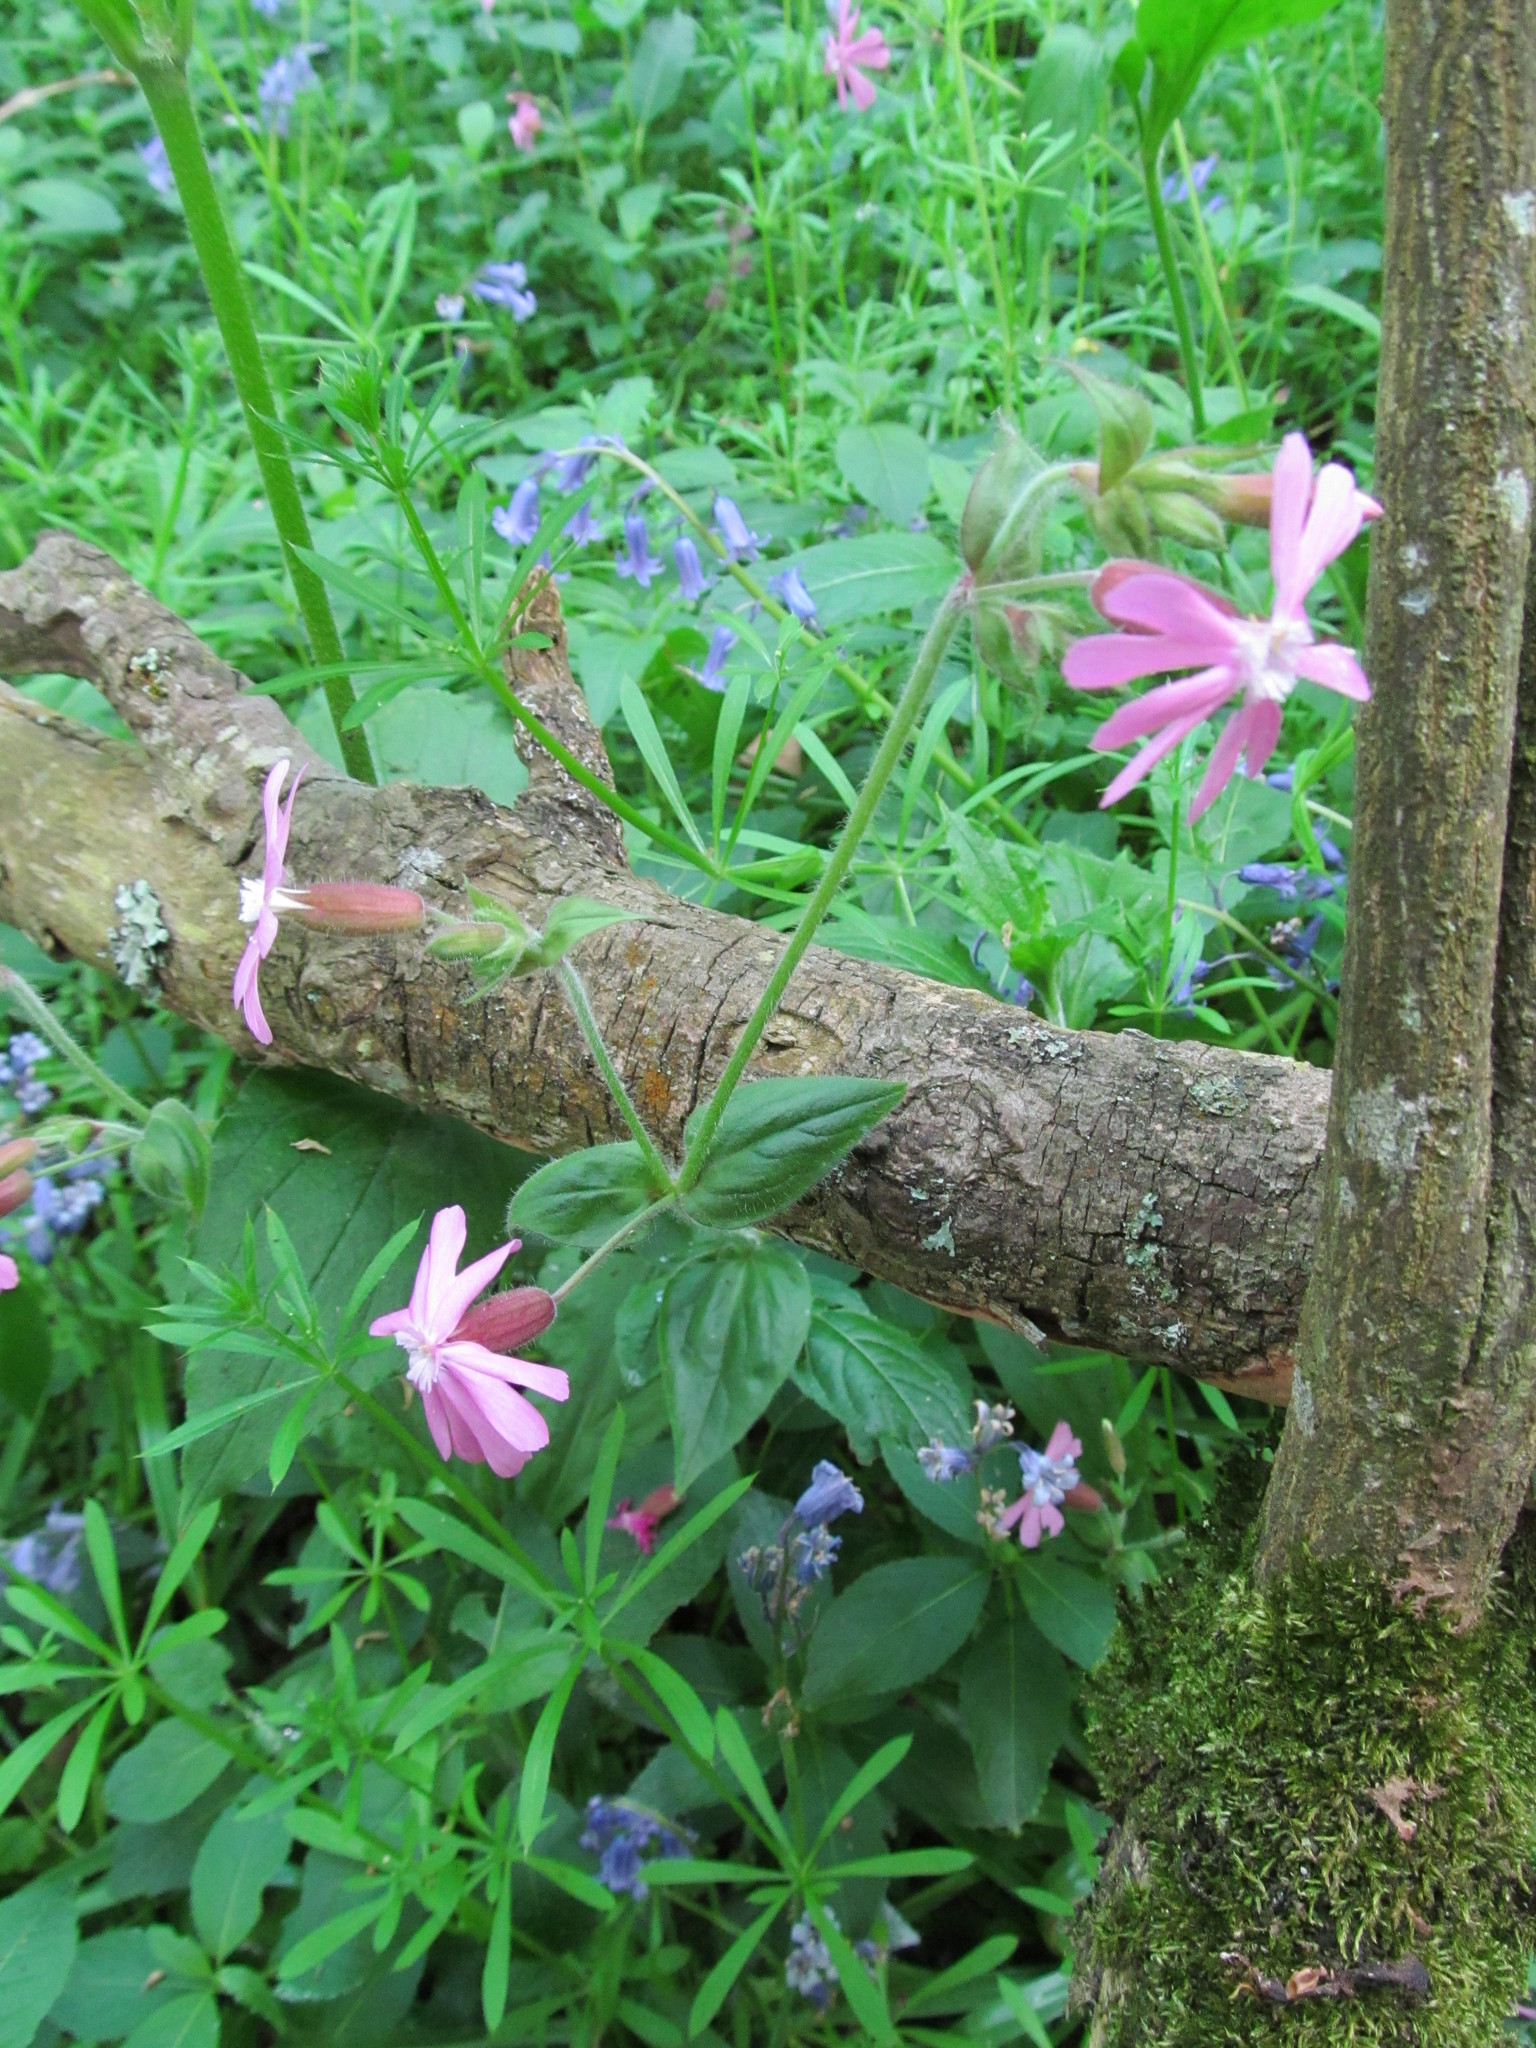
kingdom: Plantae
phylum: Tracheophyta
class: Magnoliopsida
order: Caryophyllales
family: Caryophyllaceae
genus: Silene
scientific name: Silene dioica
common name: Red campion
